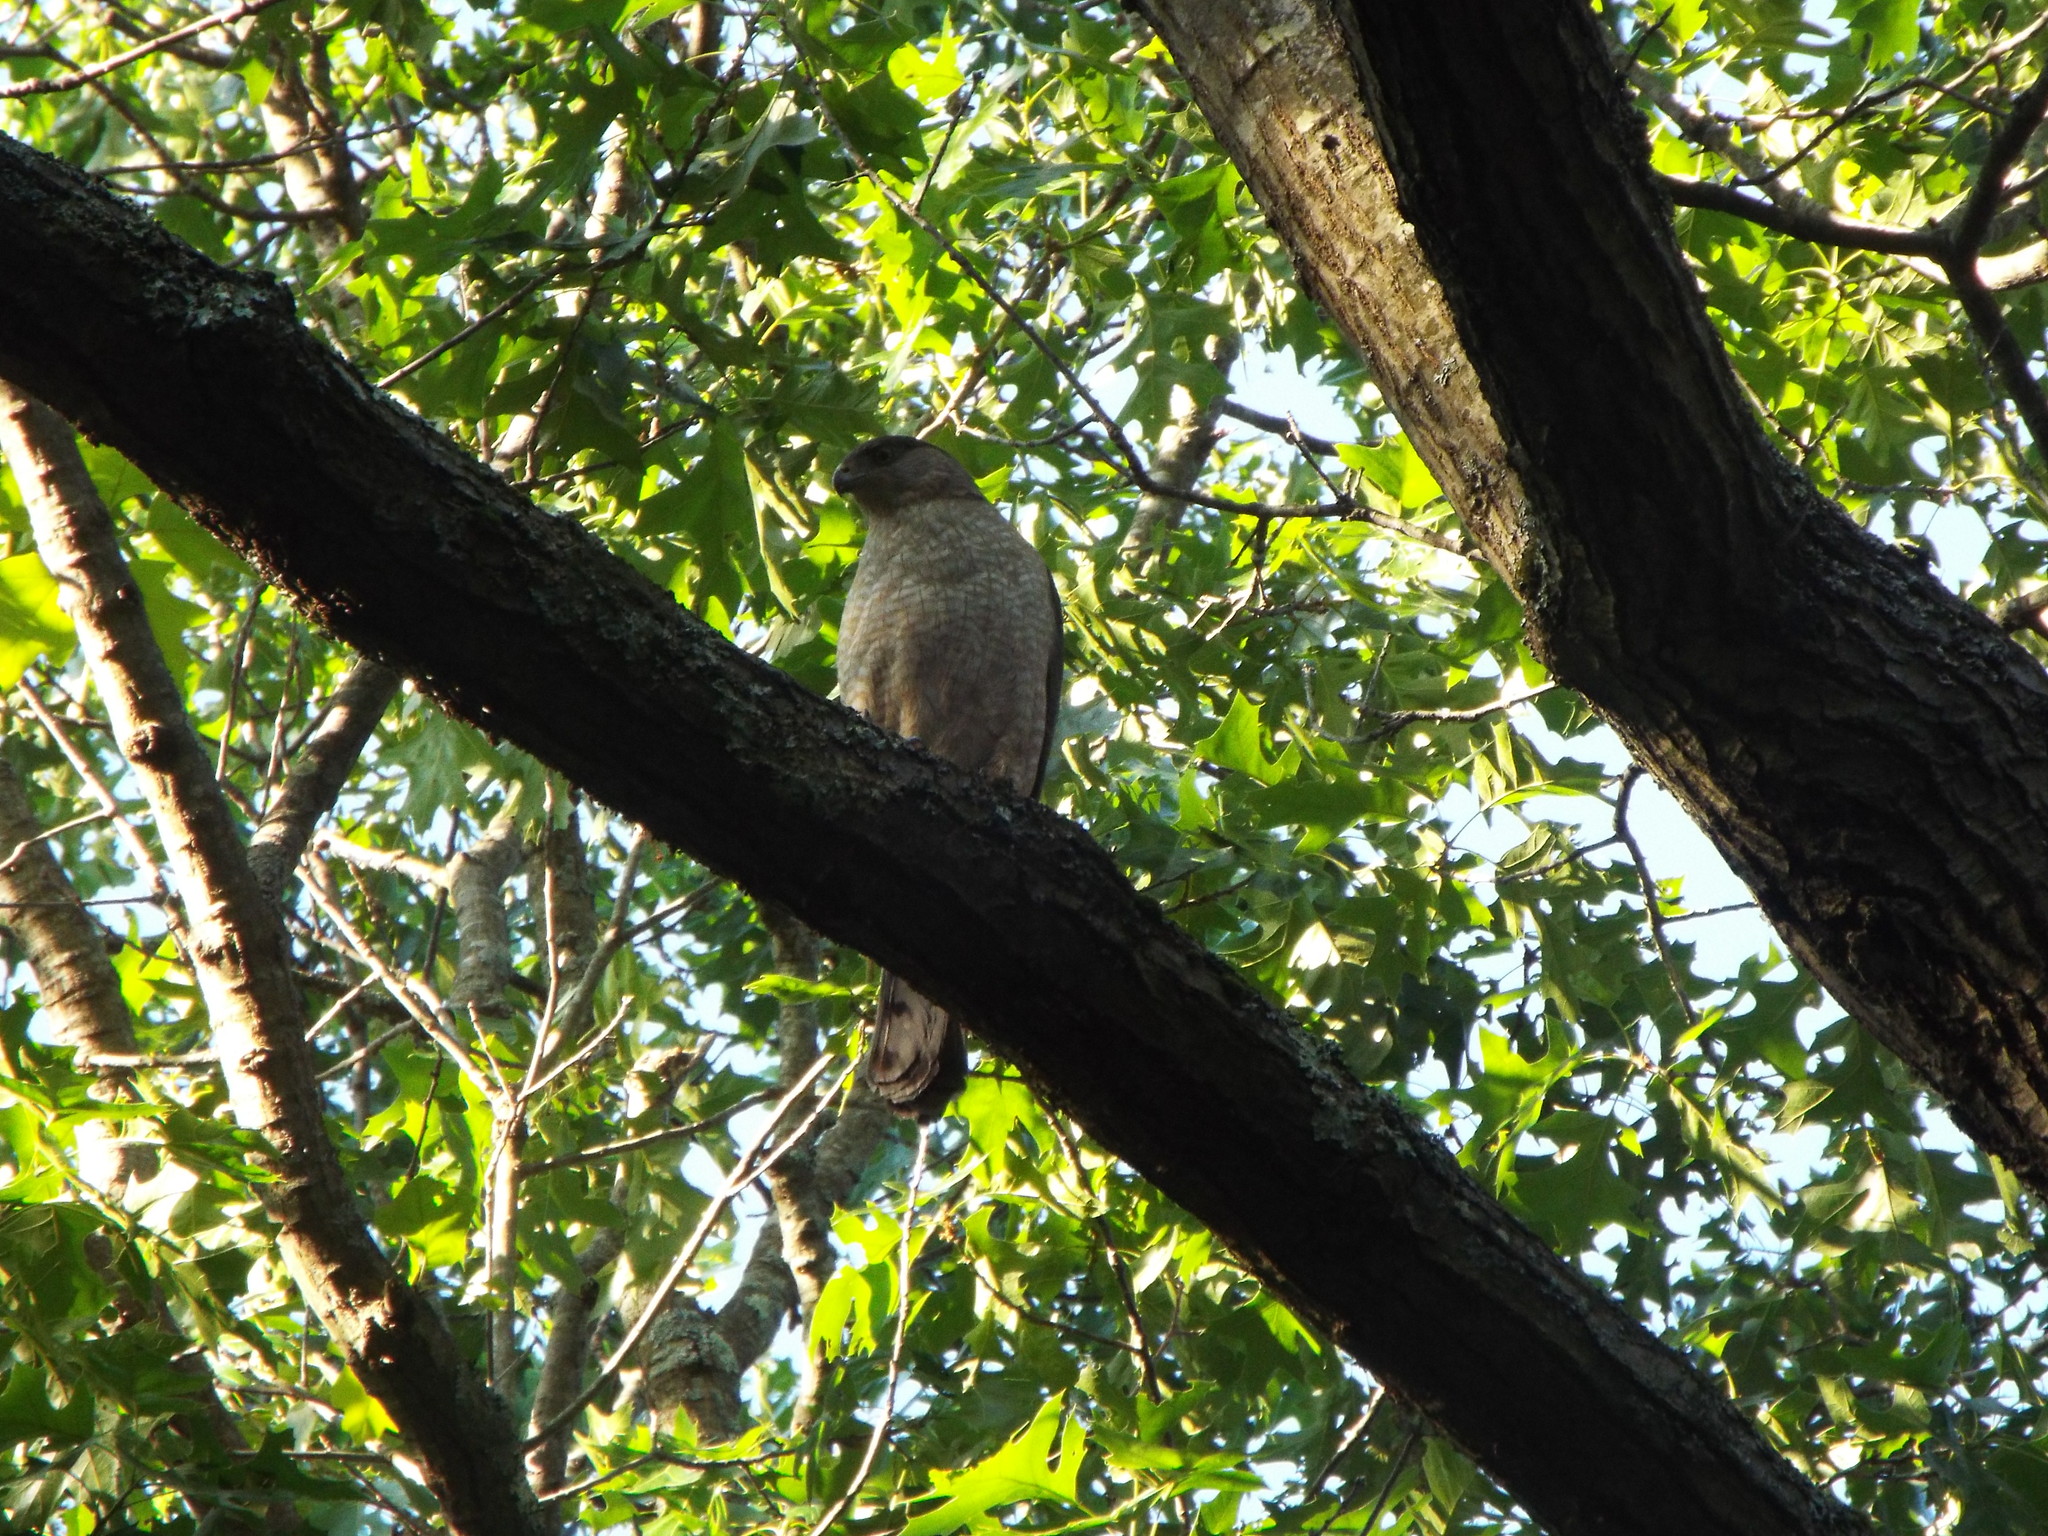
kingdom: Animalia
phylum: Chordata
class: Aves
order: Accipitriformes
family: Accipitridae
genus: Accipiter
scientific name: Accipiter cooperii
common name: Cooper's hawk
